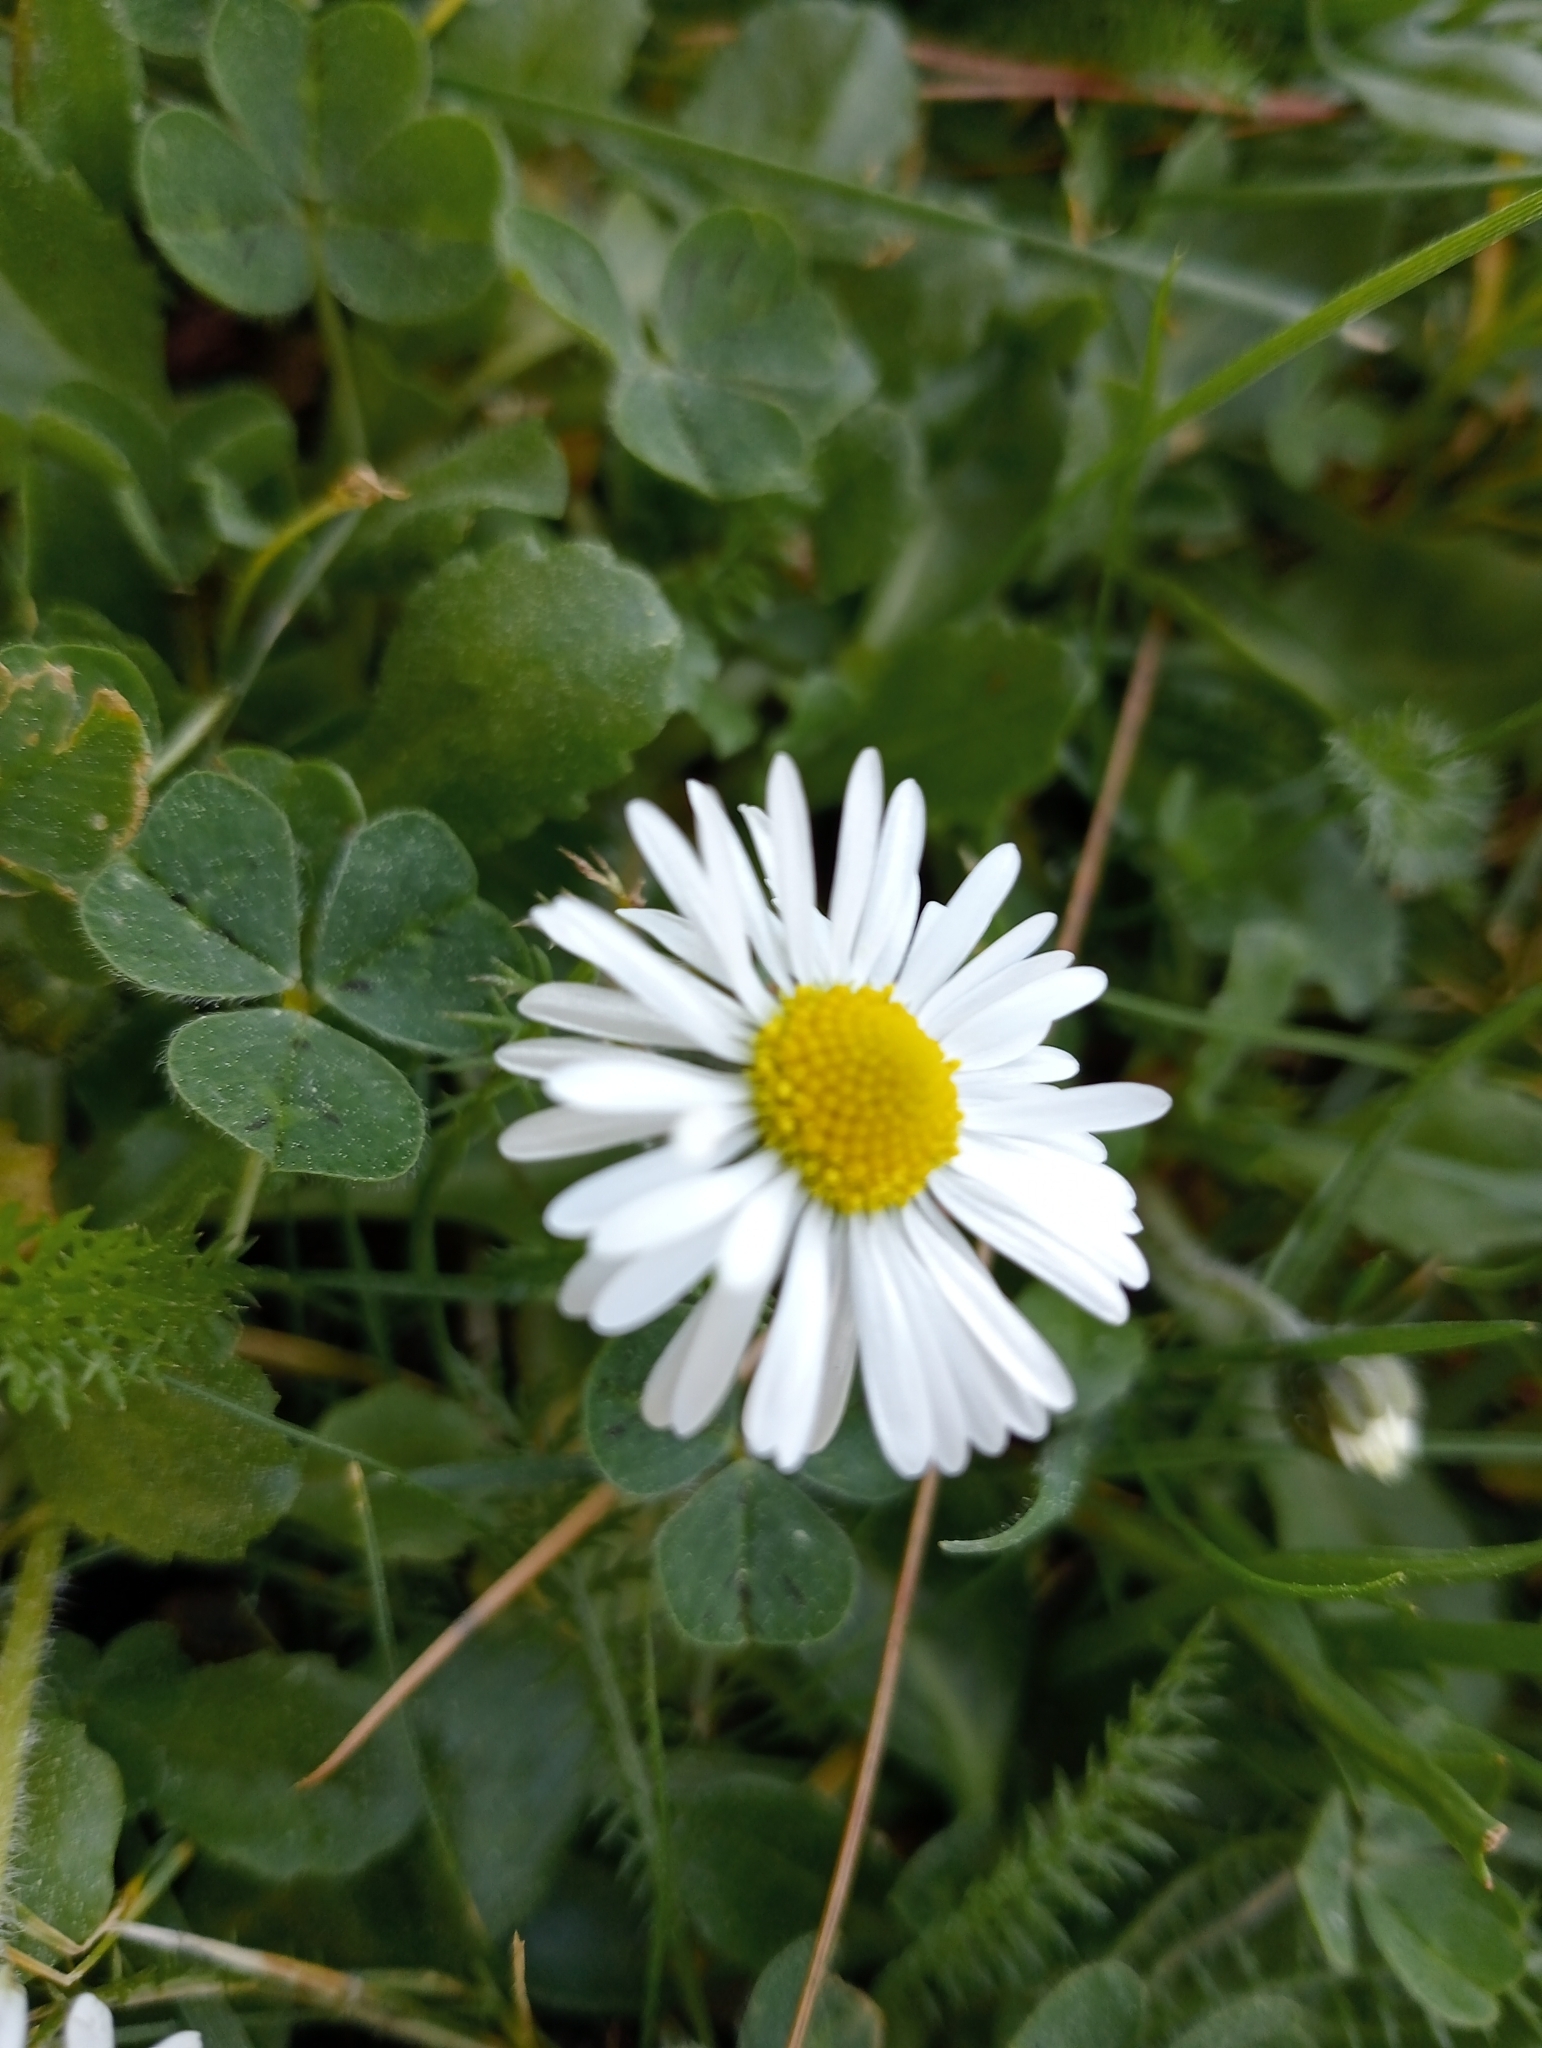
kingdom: Plantae
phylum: Tracheophyta
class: Magnoliopsida
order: Asterales
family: Asteraceae
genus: Bellis
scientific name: Bellis perennis
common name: Lawndaisy
